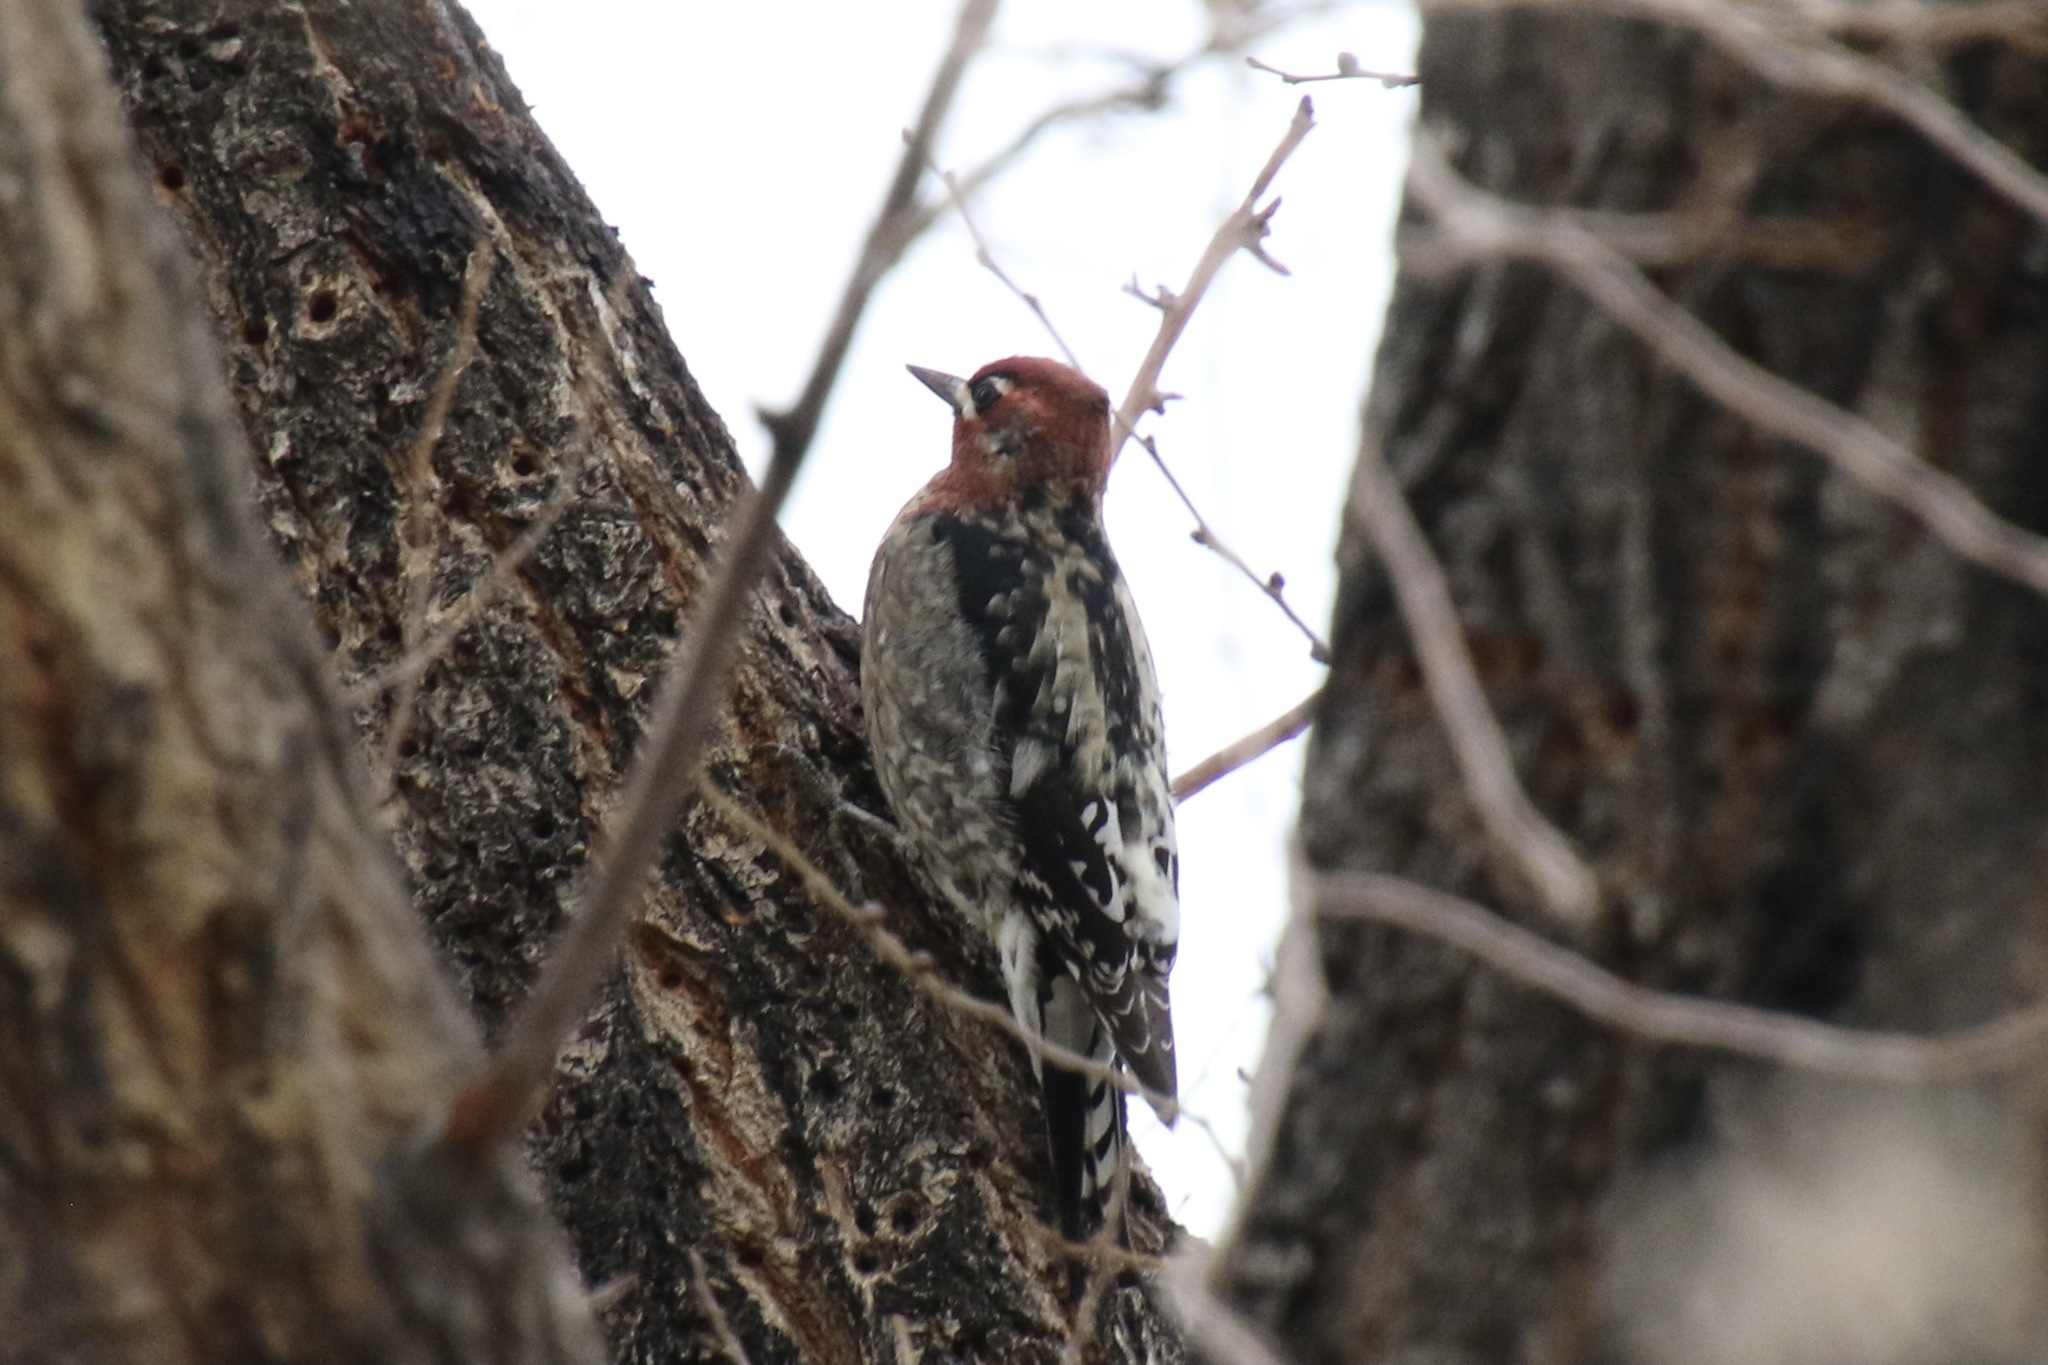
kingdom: Animalia
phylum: Chordata
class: Aves
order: Piciformes
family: Picidae
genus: Sphyrapicus
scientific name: Sphyrapicus
